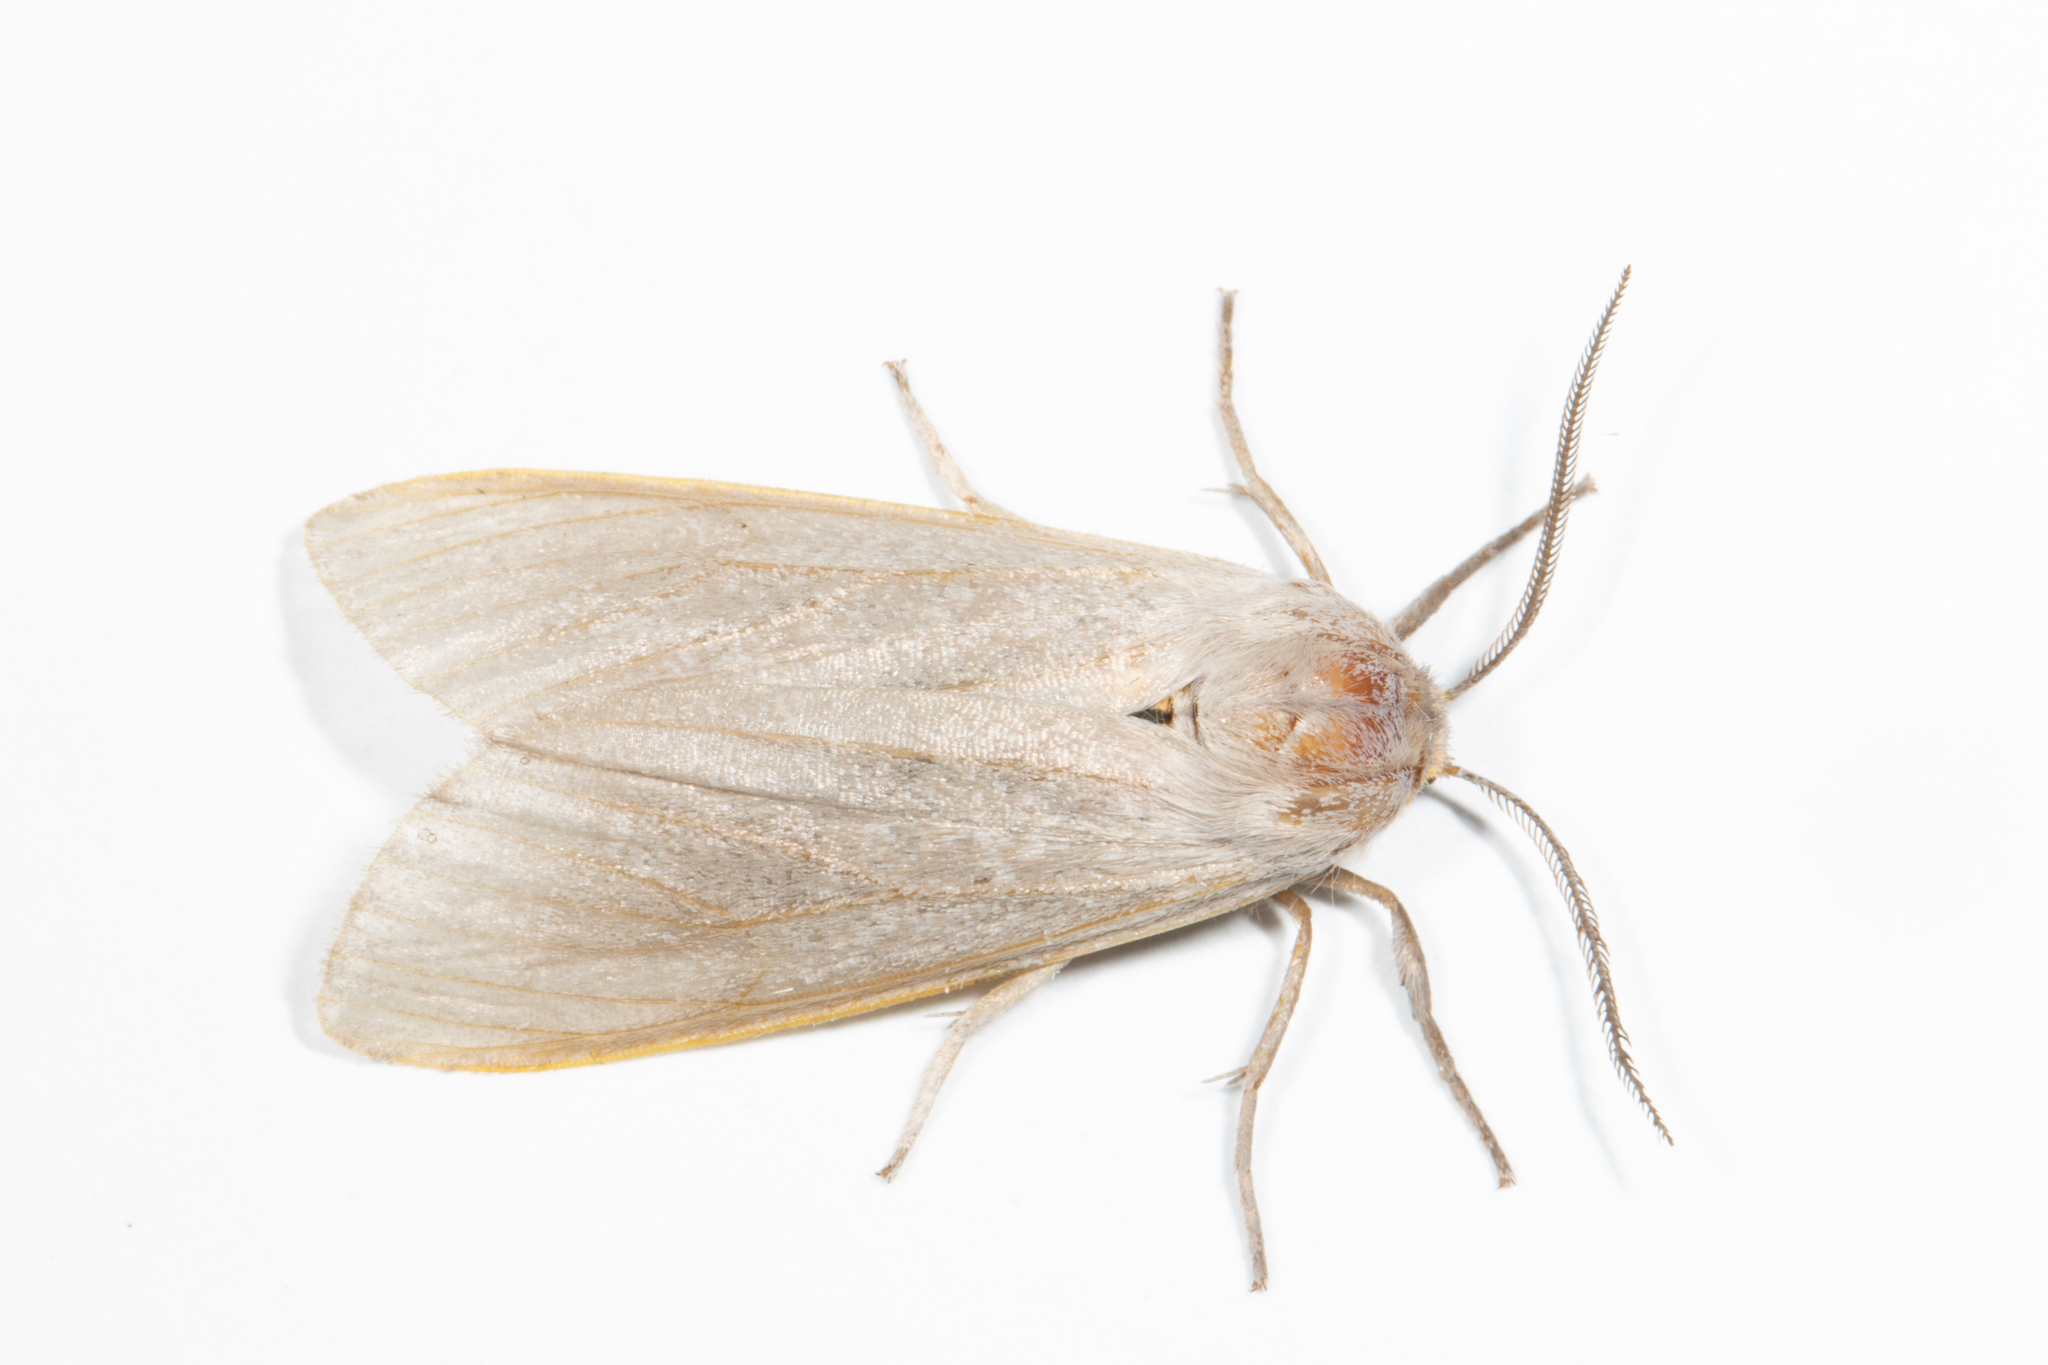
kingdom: Animalia
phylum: Arthropoda
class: Insecta
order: Lepidoptera
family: Erebidae
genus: Euchaetes
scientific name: Euchaetes egle
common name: Milkweed tussock moth
